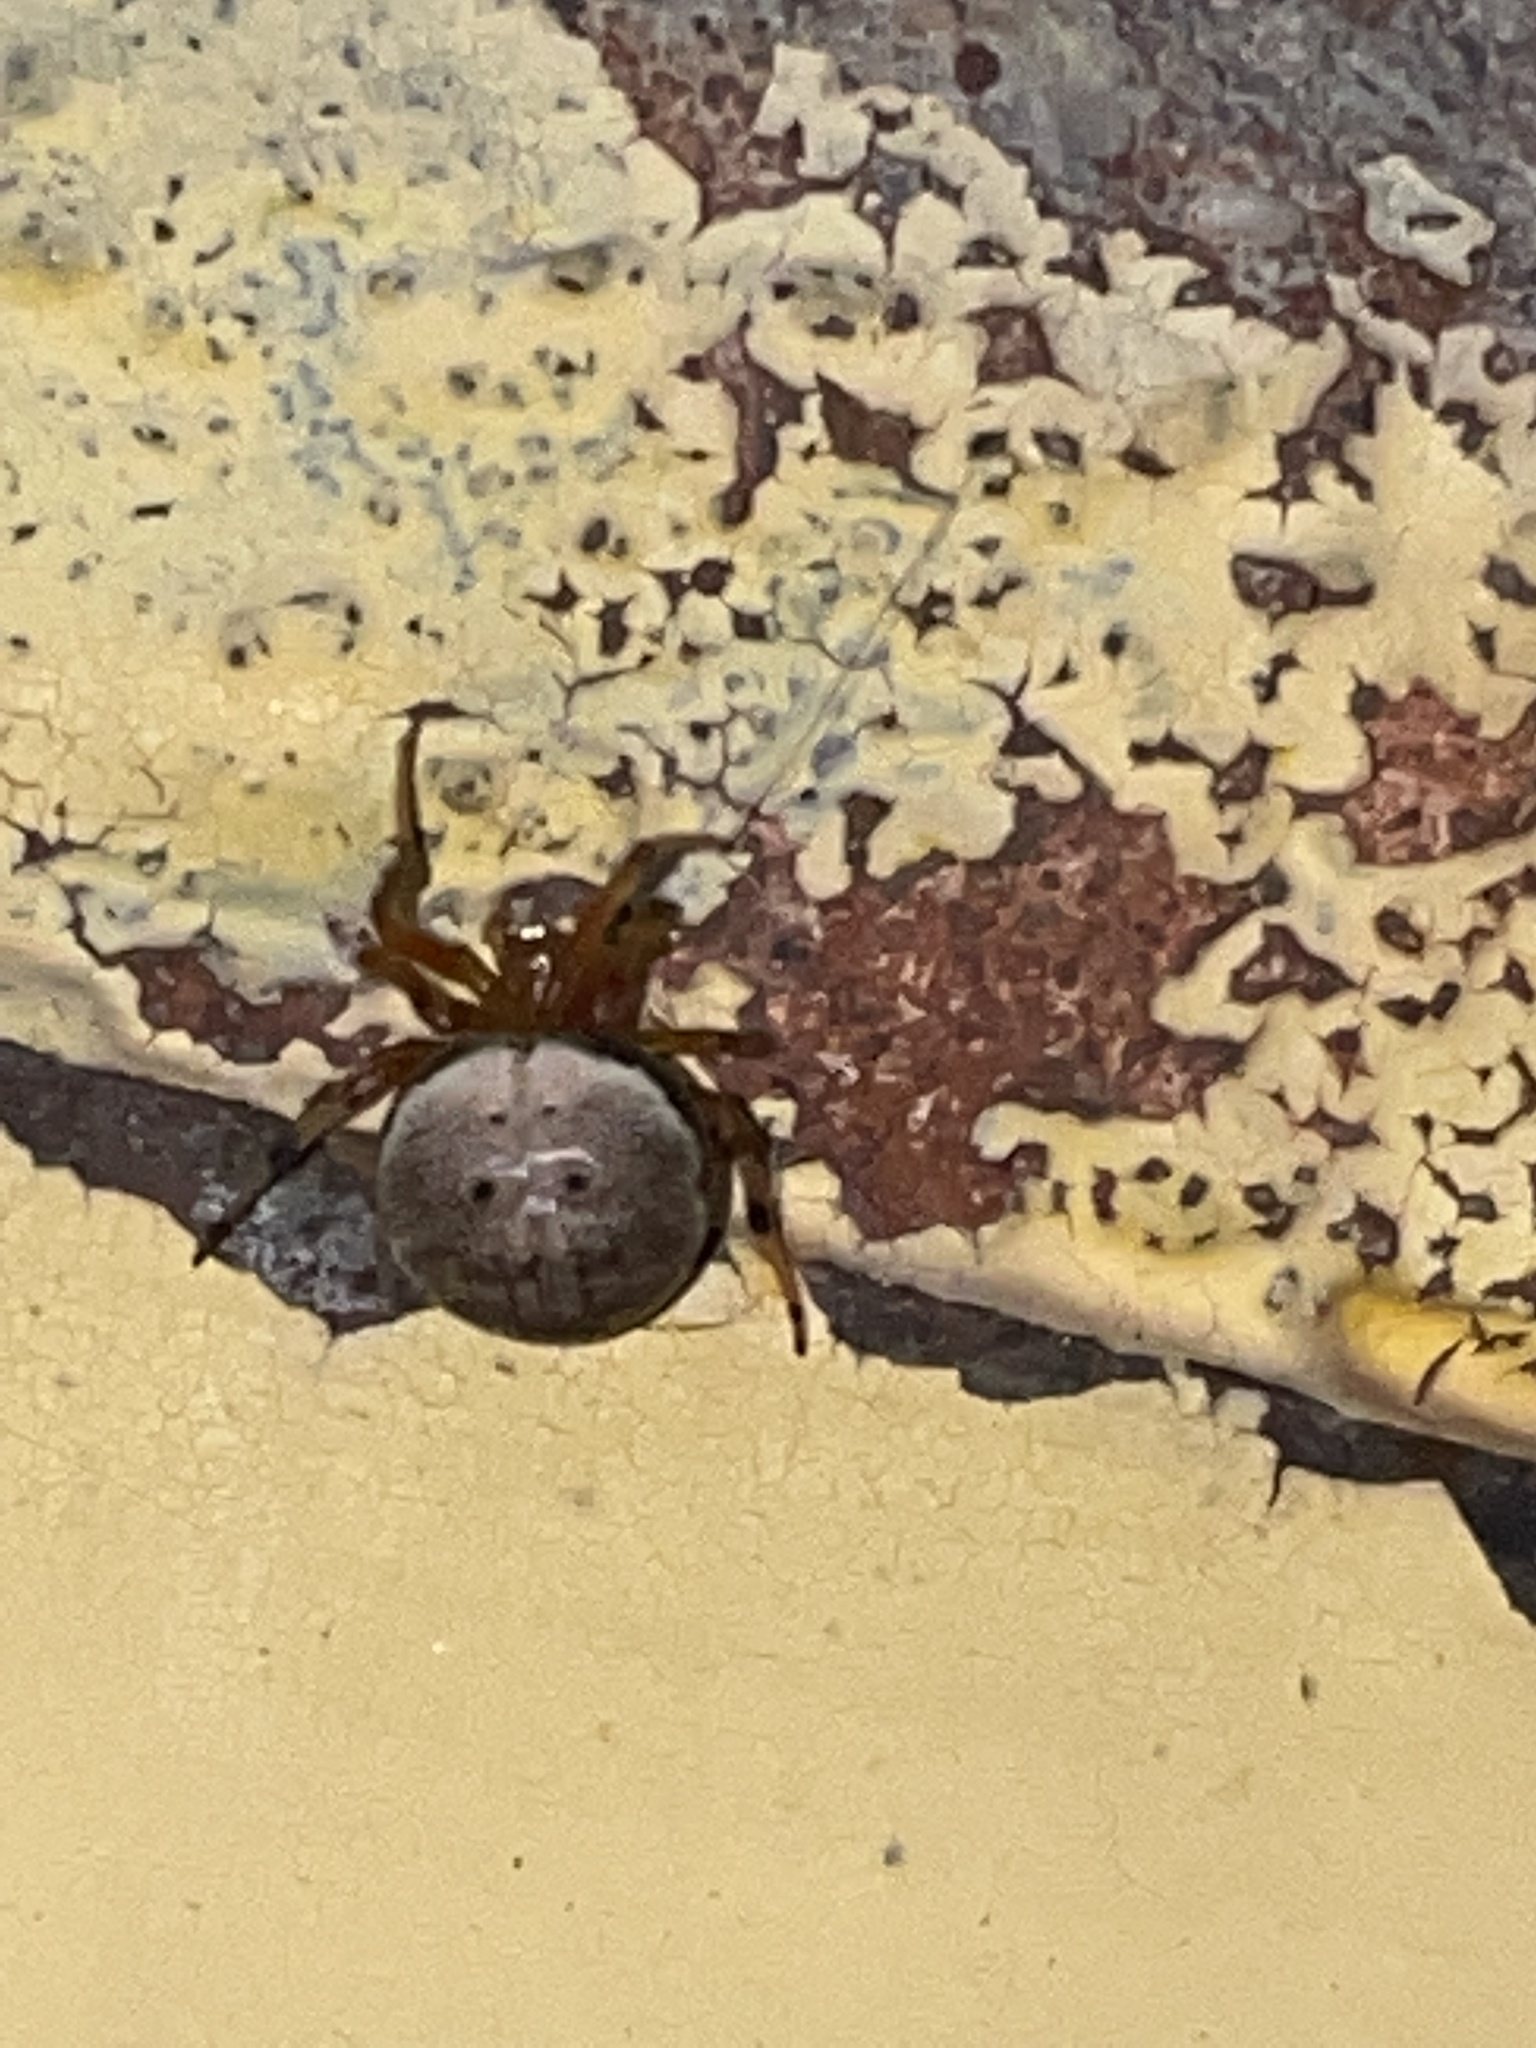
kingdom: Animalia
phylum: Arthropoda
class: Arachnida
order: Araneae
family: Araneidae
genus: Araneus
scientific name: Araneus thaddeus
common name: Lattice orbweaver
